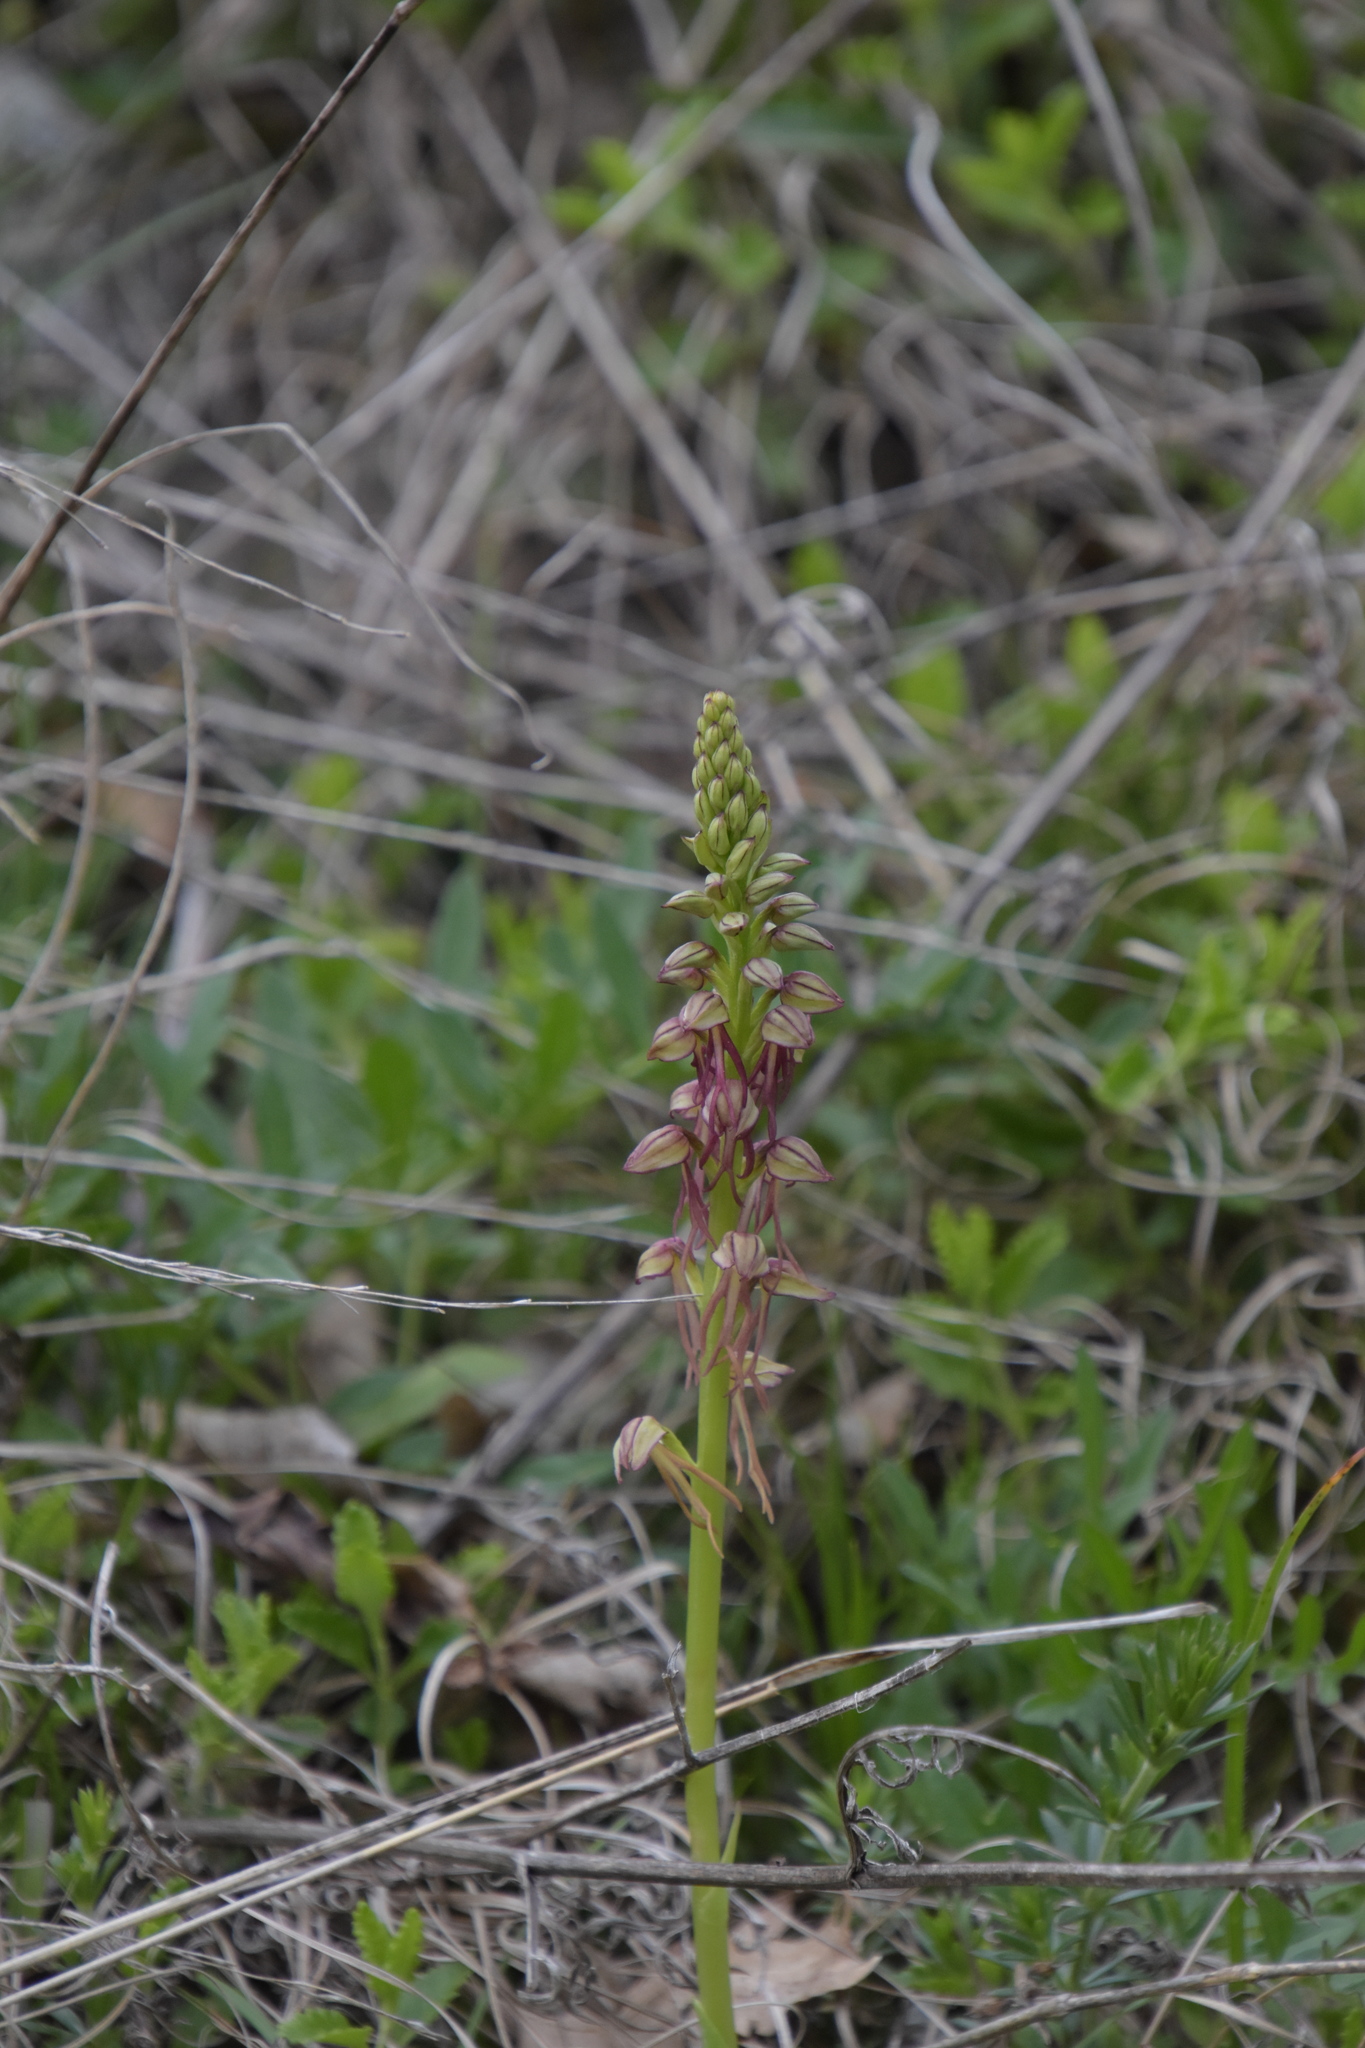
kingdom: Plantae
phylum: Tracheophyta
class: Liliopsida
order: Asparagales
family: Orchidaceae
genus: Orchis
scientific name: Orchis anthropophora
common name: Man orchid
